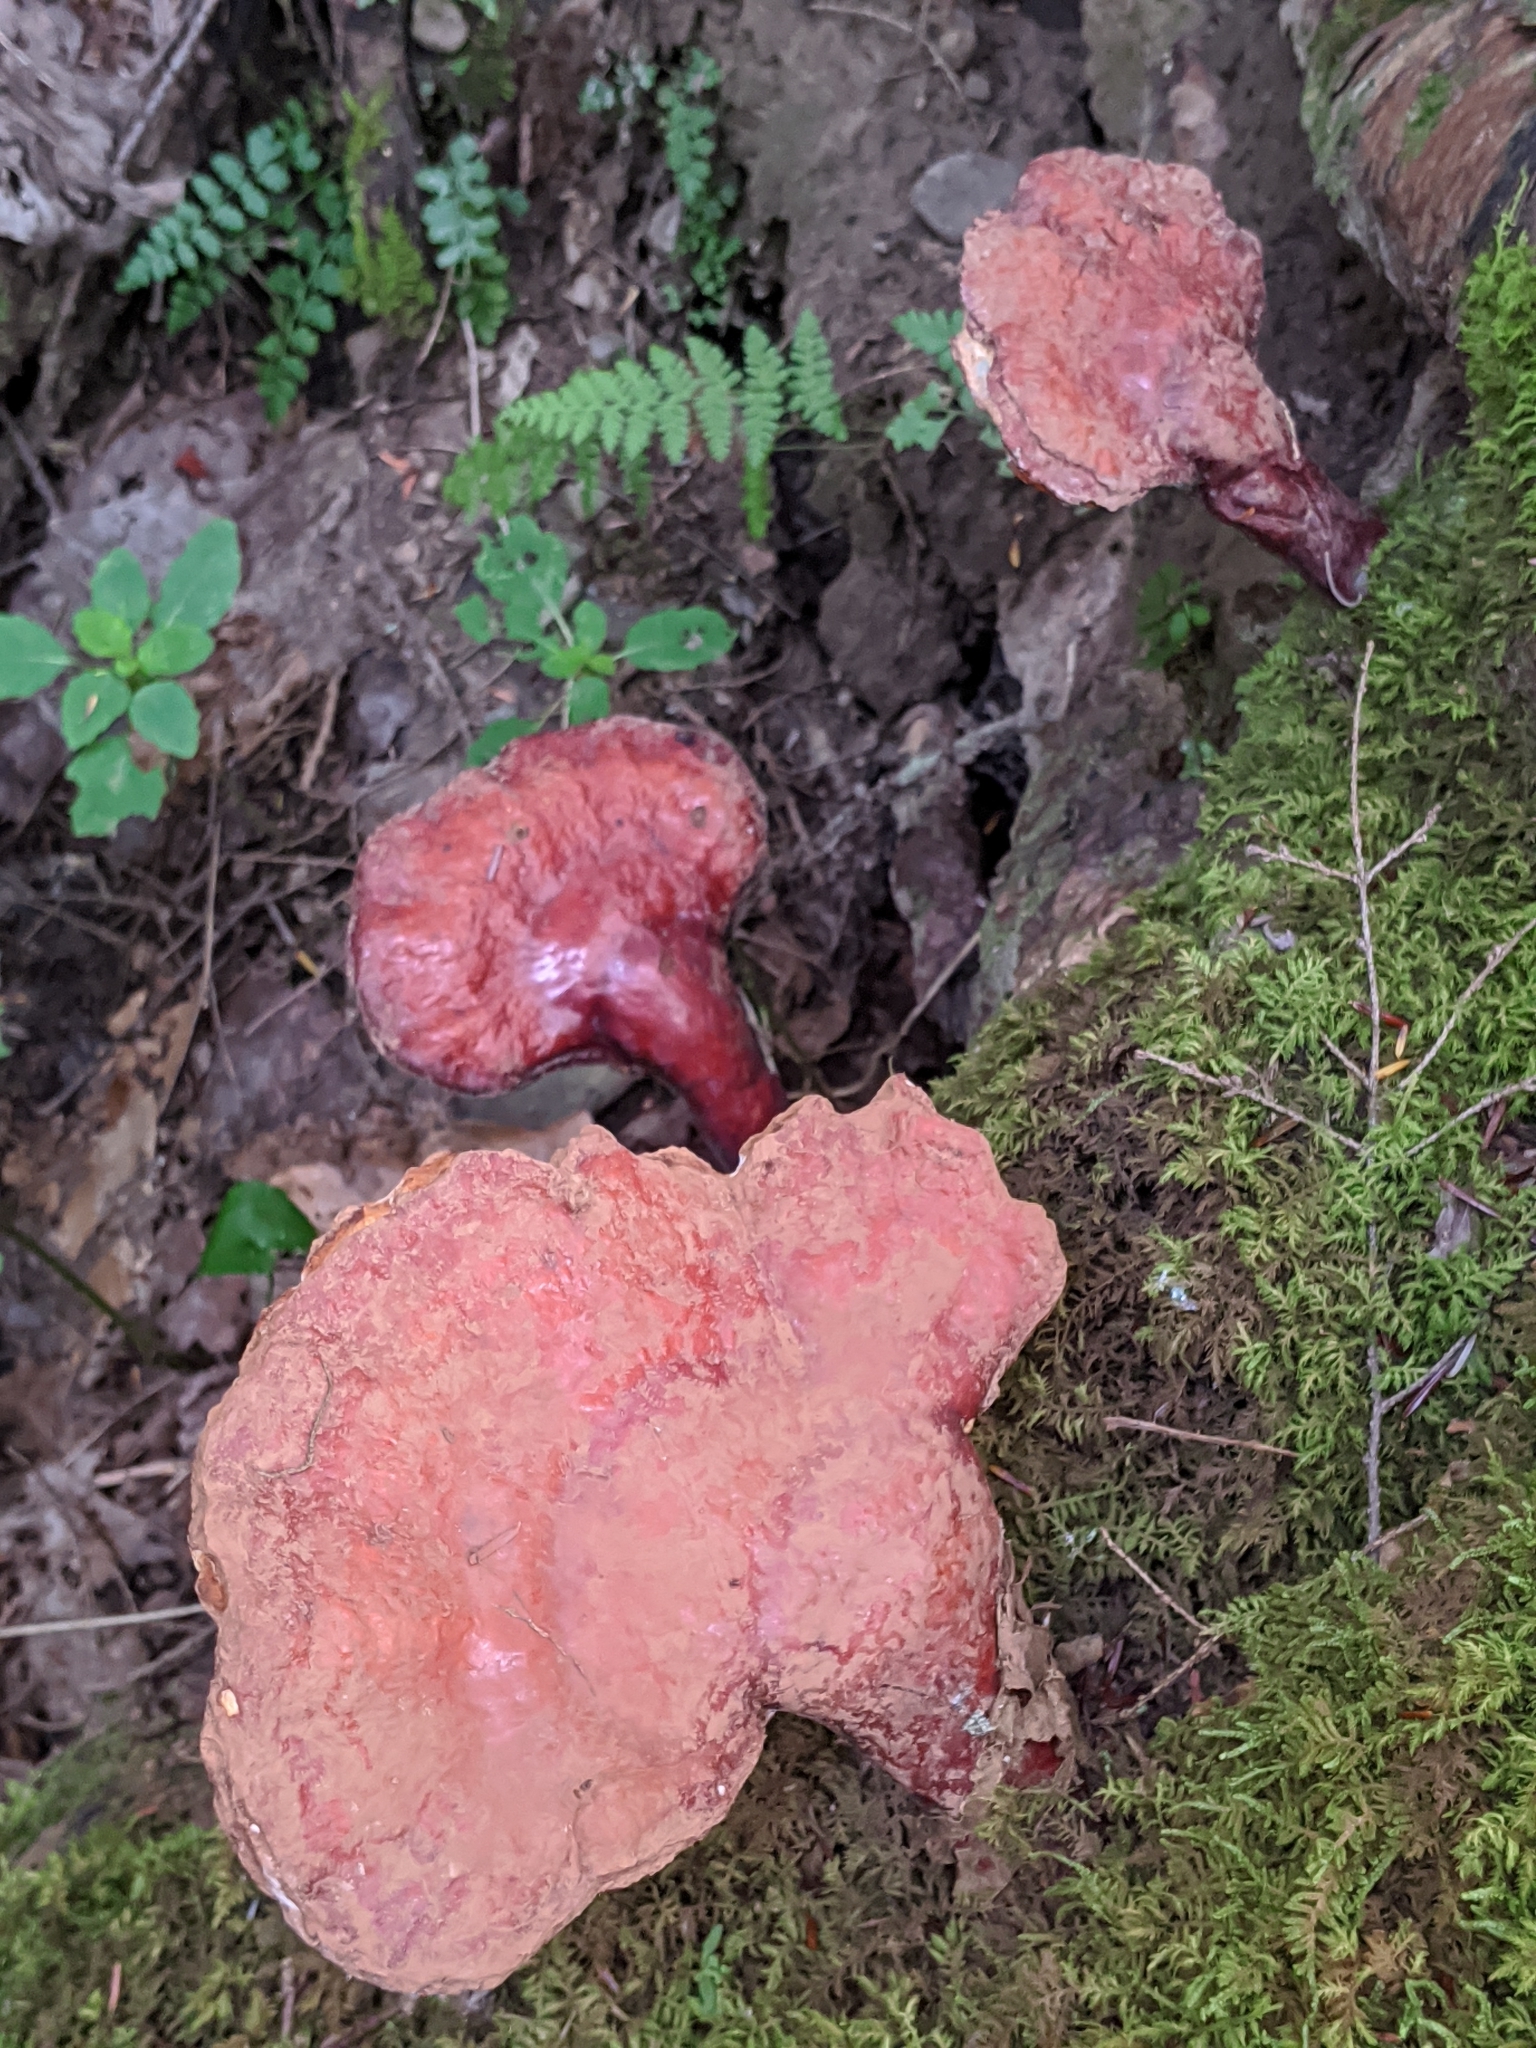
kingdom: Fungi
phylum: Basidiomycota
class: Agaricomycetes
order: Polyporales
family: Polyporaceae
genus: Ganoderma
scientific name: Ganoderma tsugae
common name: Hemlock varnish shelf
